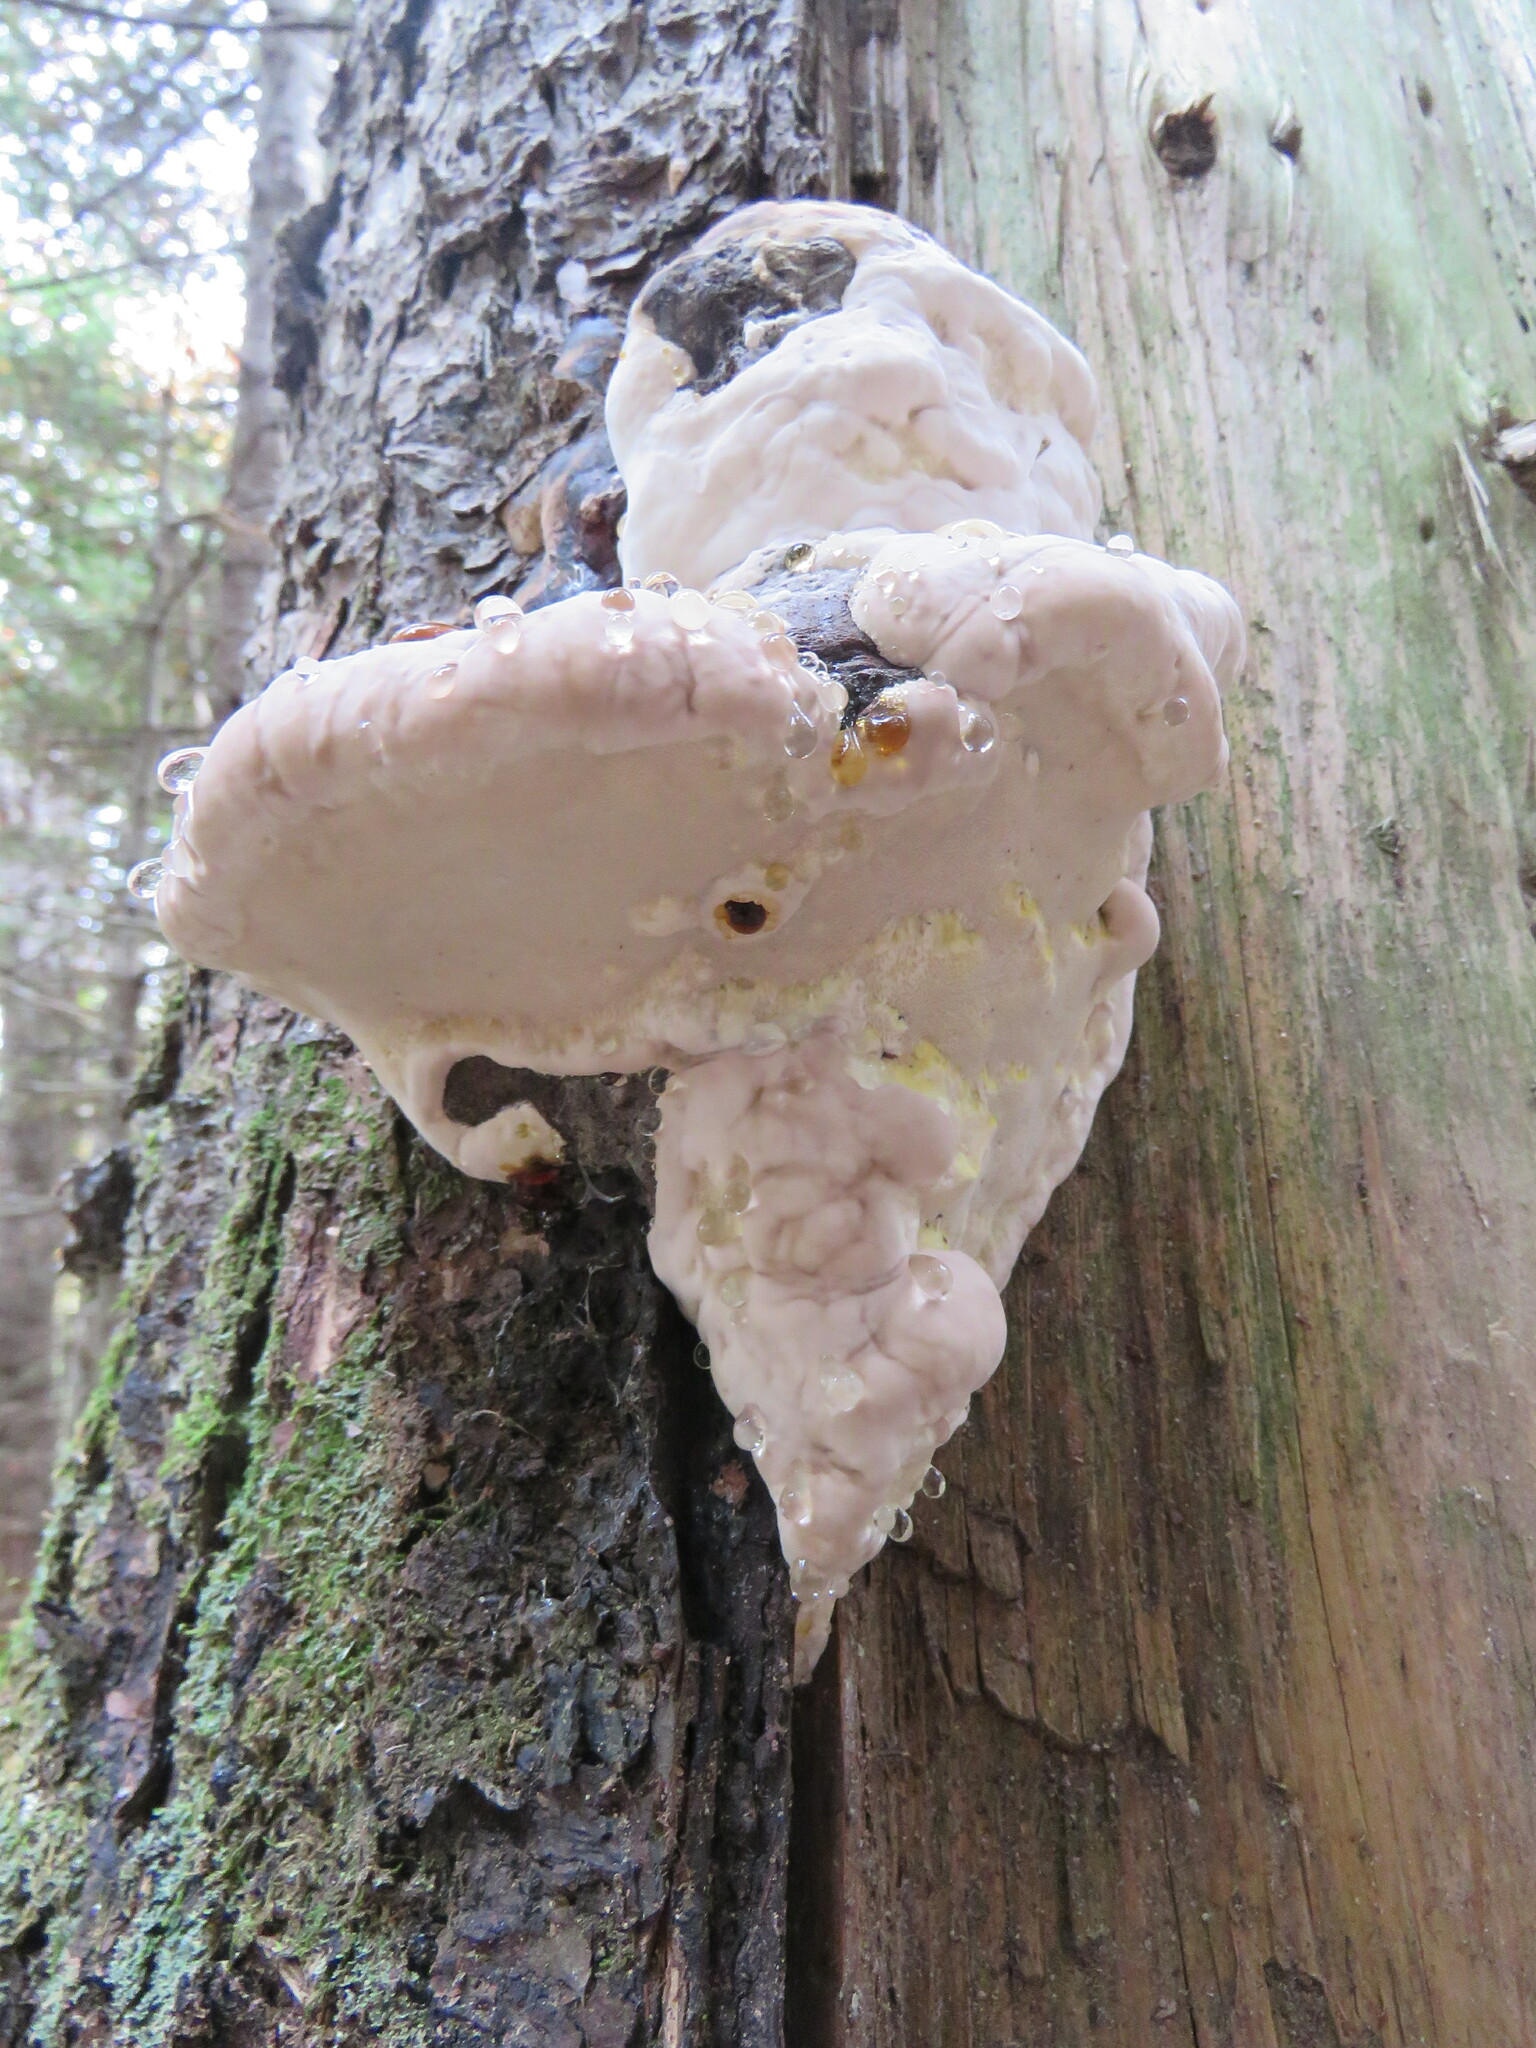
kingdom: Fungi
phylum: Basidiomycota
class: Agaricomycetes
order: Polyporales
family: Fomitopsidaceae
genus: Fomitopsis
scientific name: Fomitopsis mounceae
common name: Northern red belt
